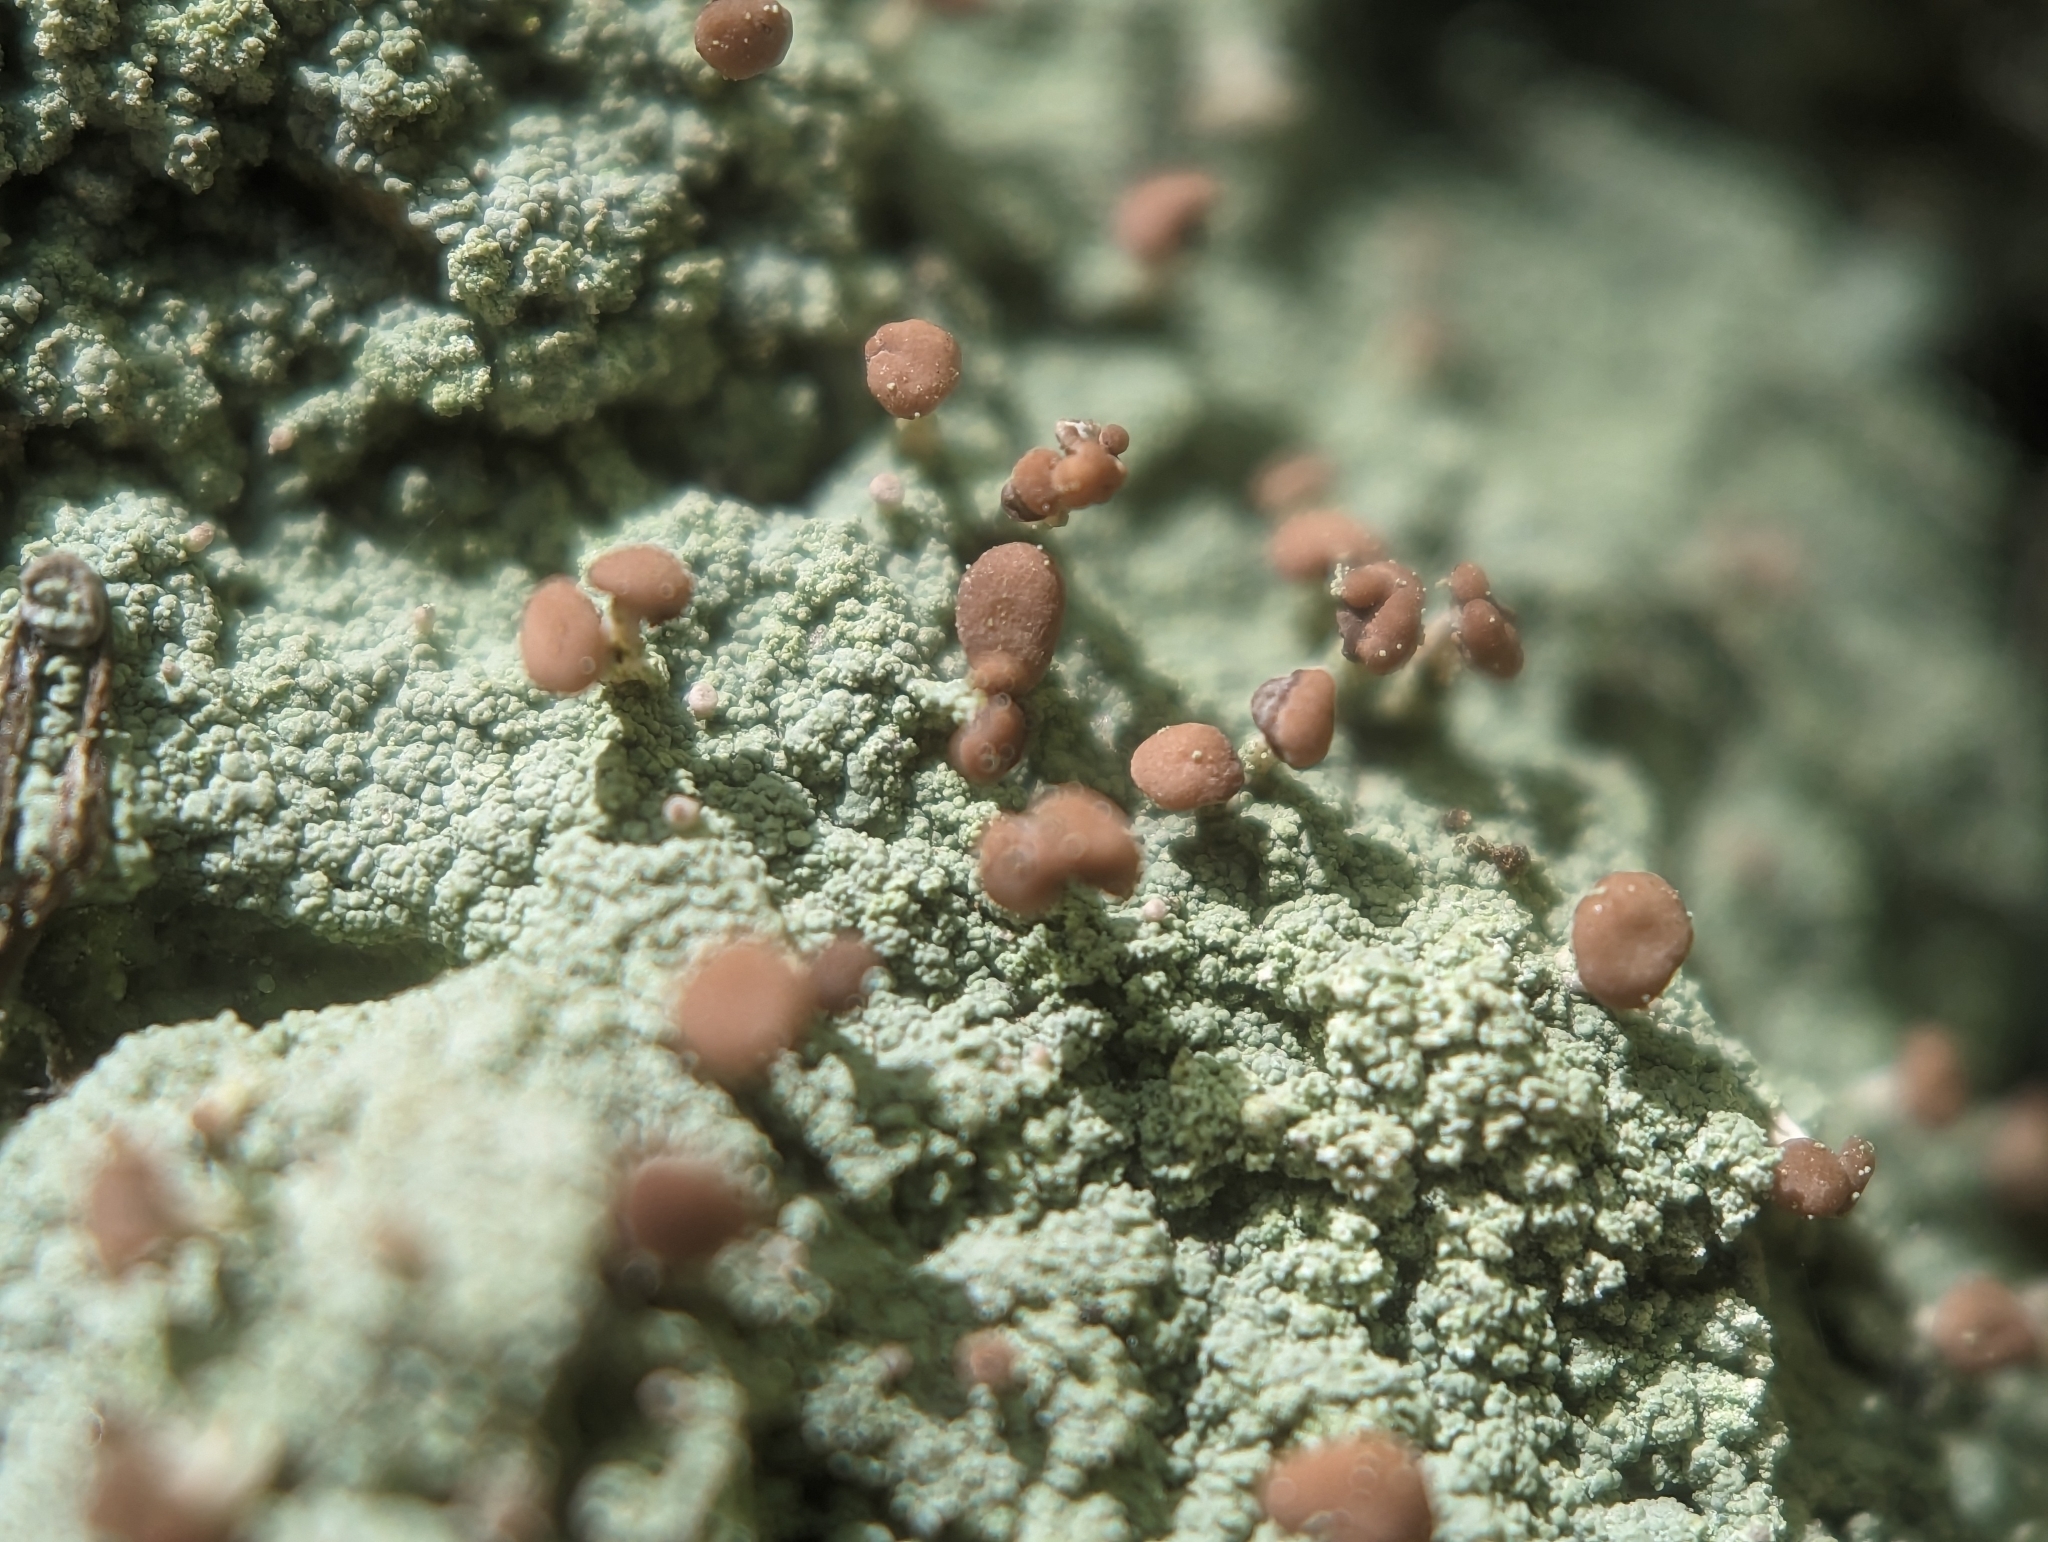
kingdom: Fungi
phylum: Ascomycota
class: Lecanoromycetes
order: Baeomycetales
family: Baeomycetaceae
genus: Baeomyces
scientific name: Baeomyces rufus
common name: Brown beret lichen
